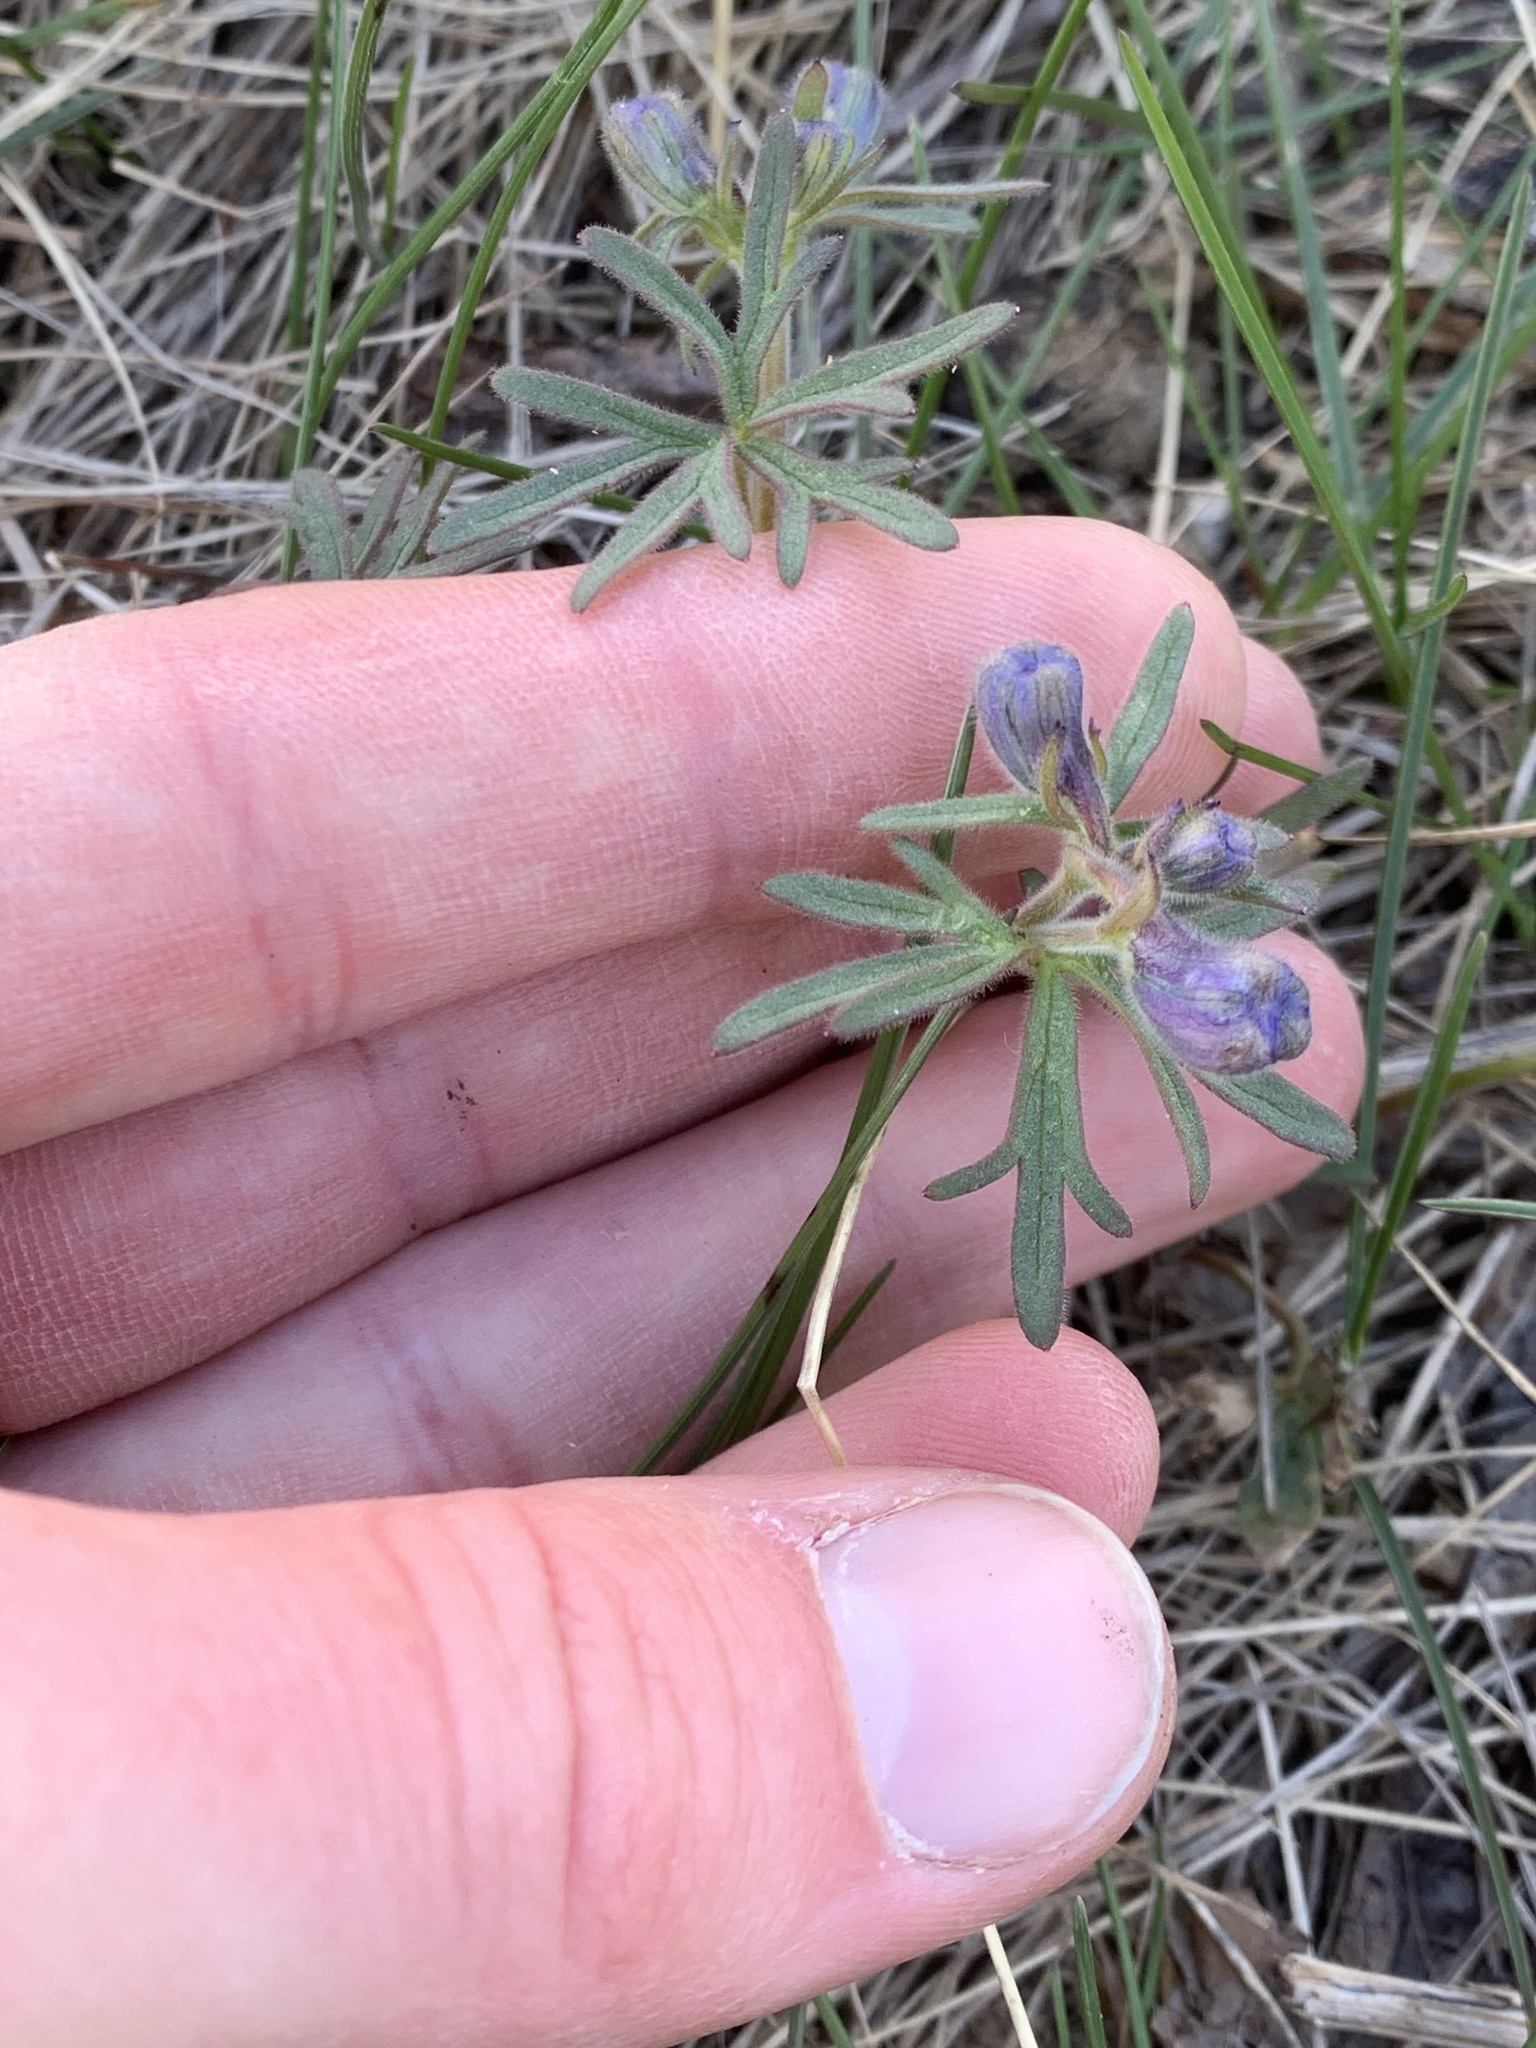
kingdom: Plantae
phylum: Tracheophyta
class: Magnoliopsida
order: Ranunculales
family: Ranunculaceae
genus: Delphinium
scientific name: Delphinium bicolor
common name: Low larkspur
